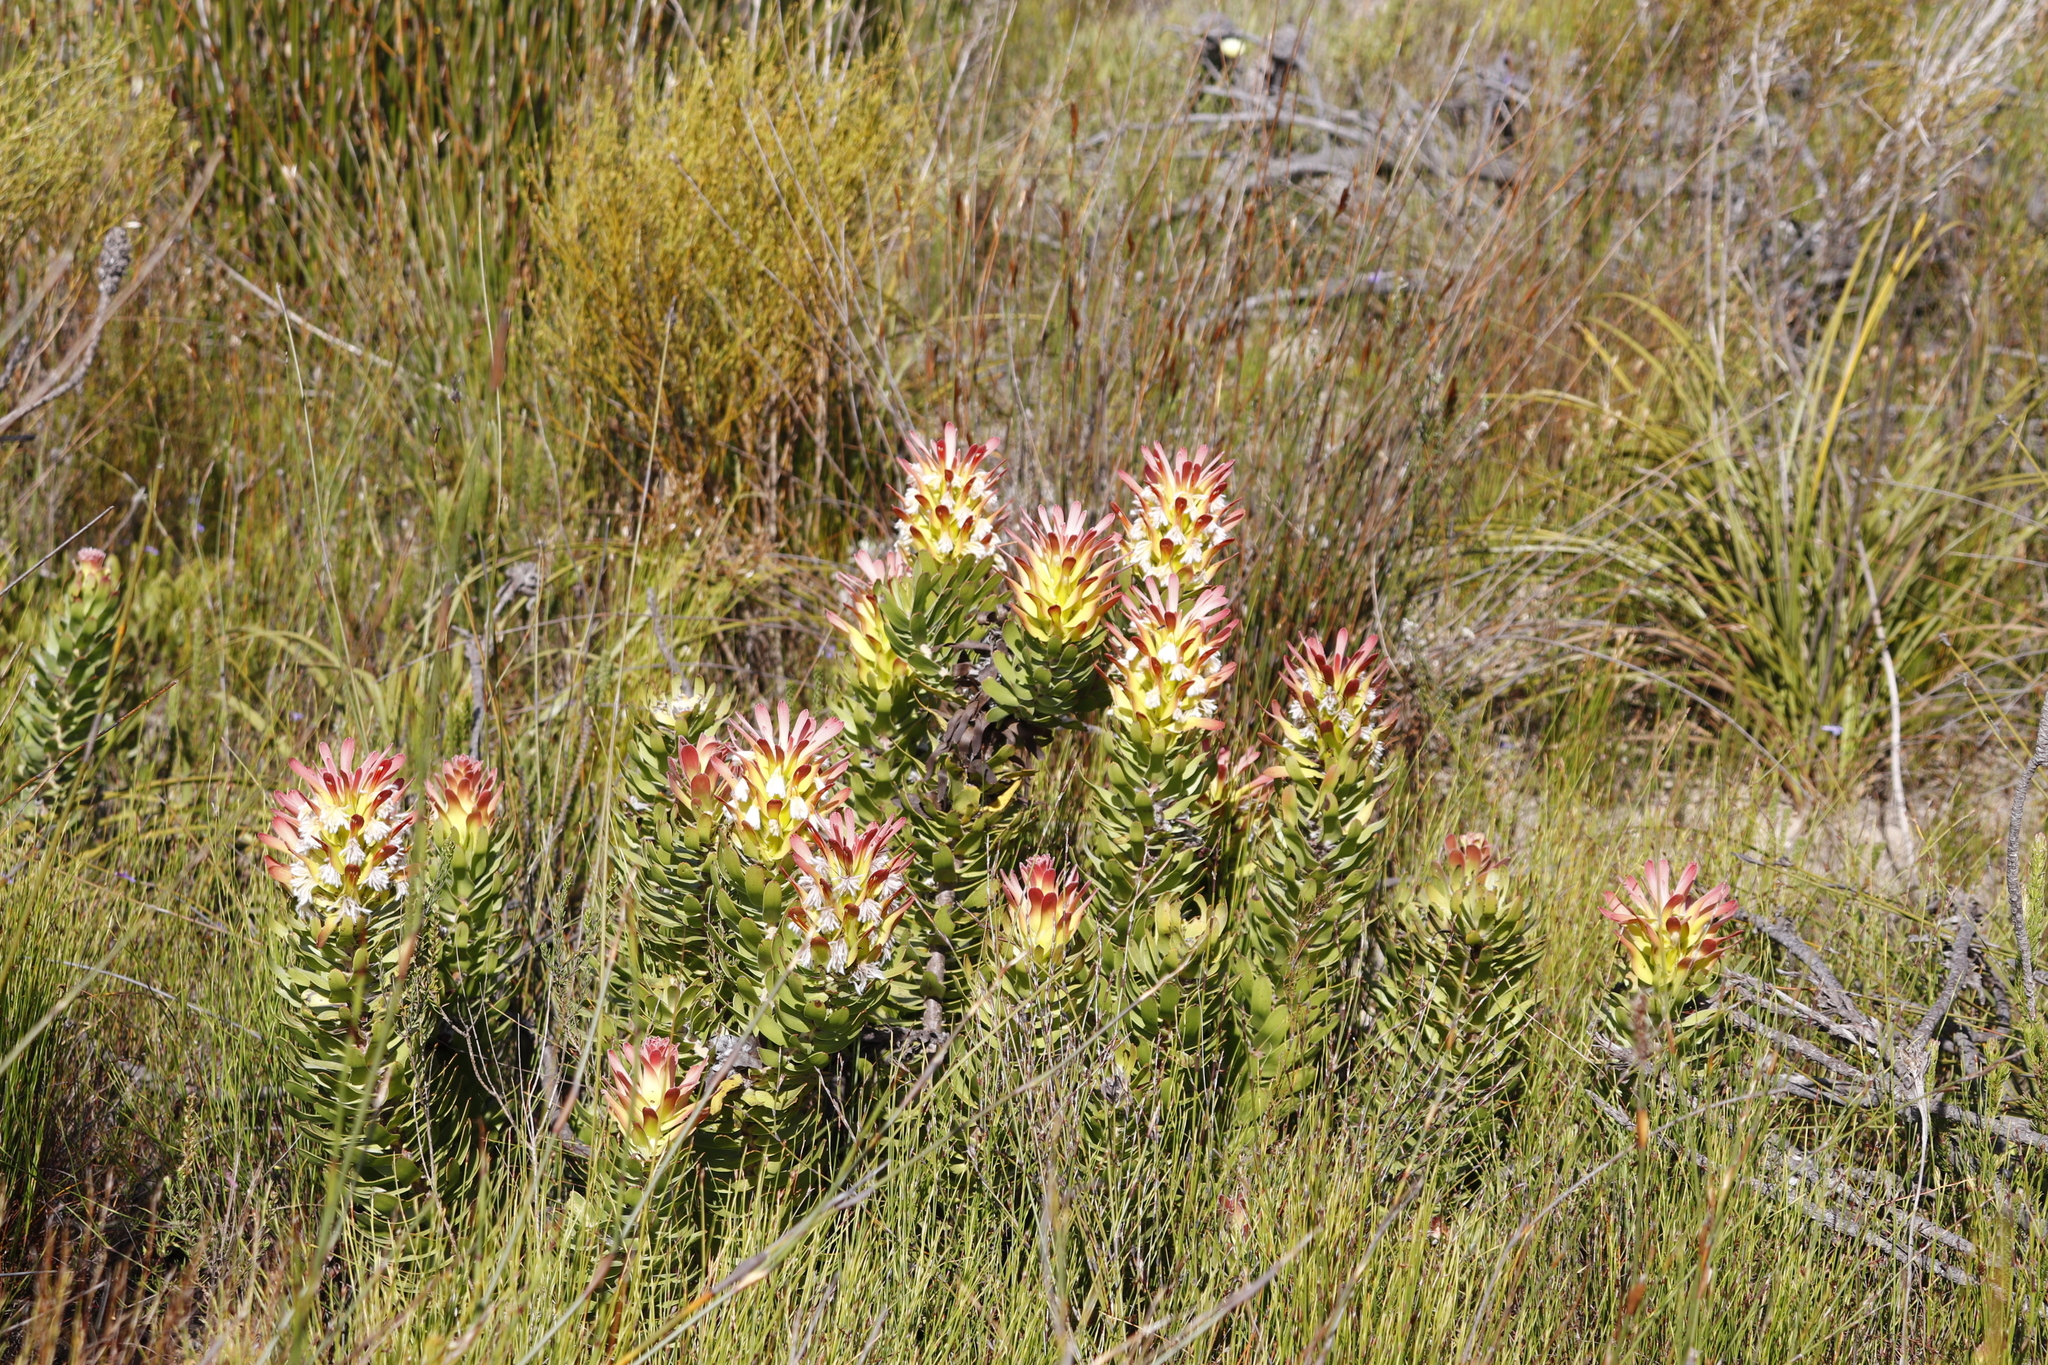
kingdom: Plantae
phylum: Tracheophyta
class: Magnoliopsida
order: Proteales
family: Proteaceae
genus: Mimetes
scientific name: Mimetes cucullatus
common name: Common pagoda
